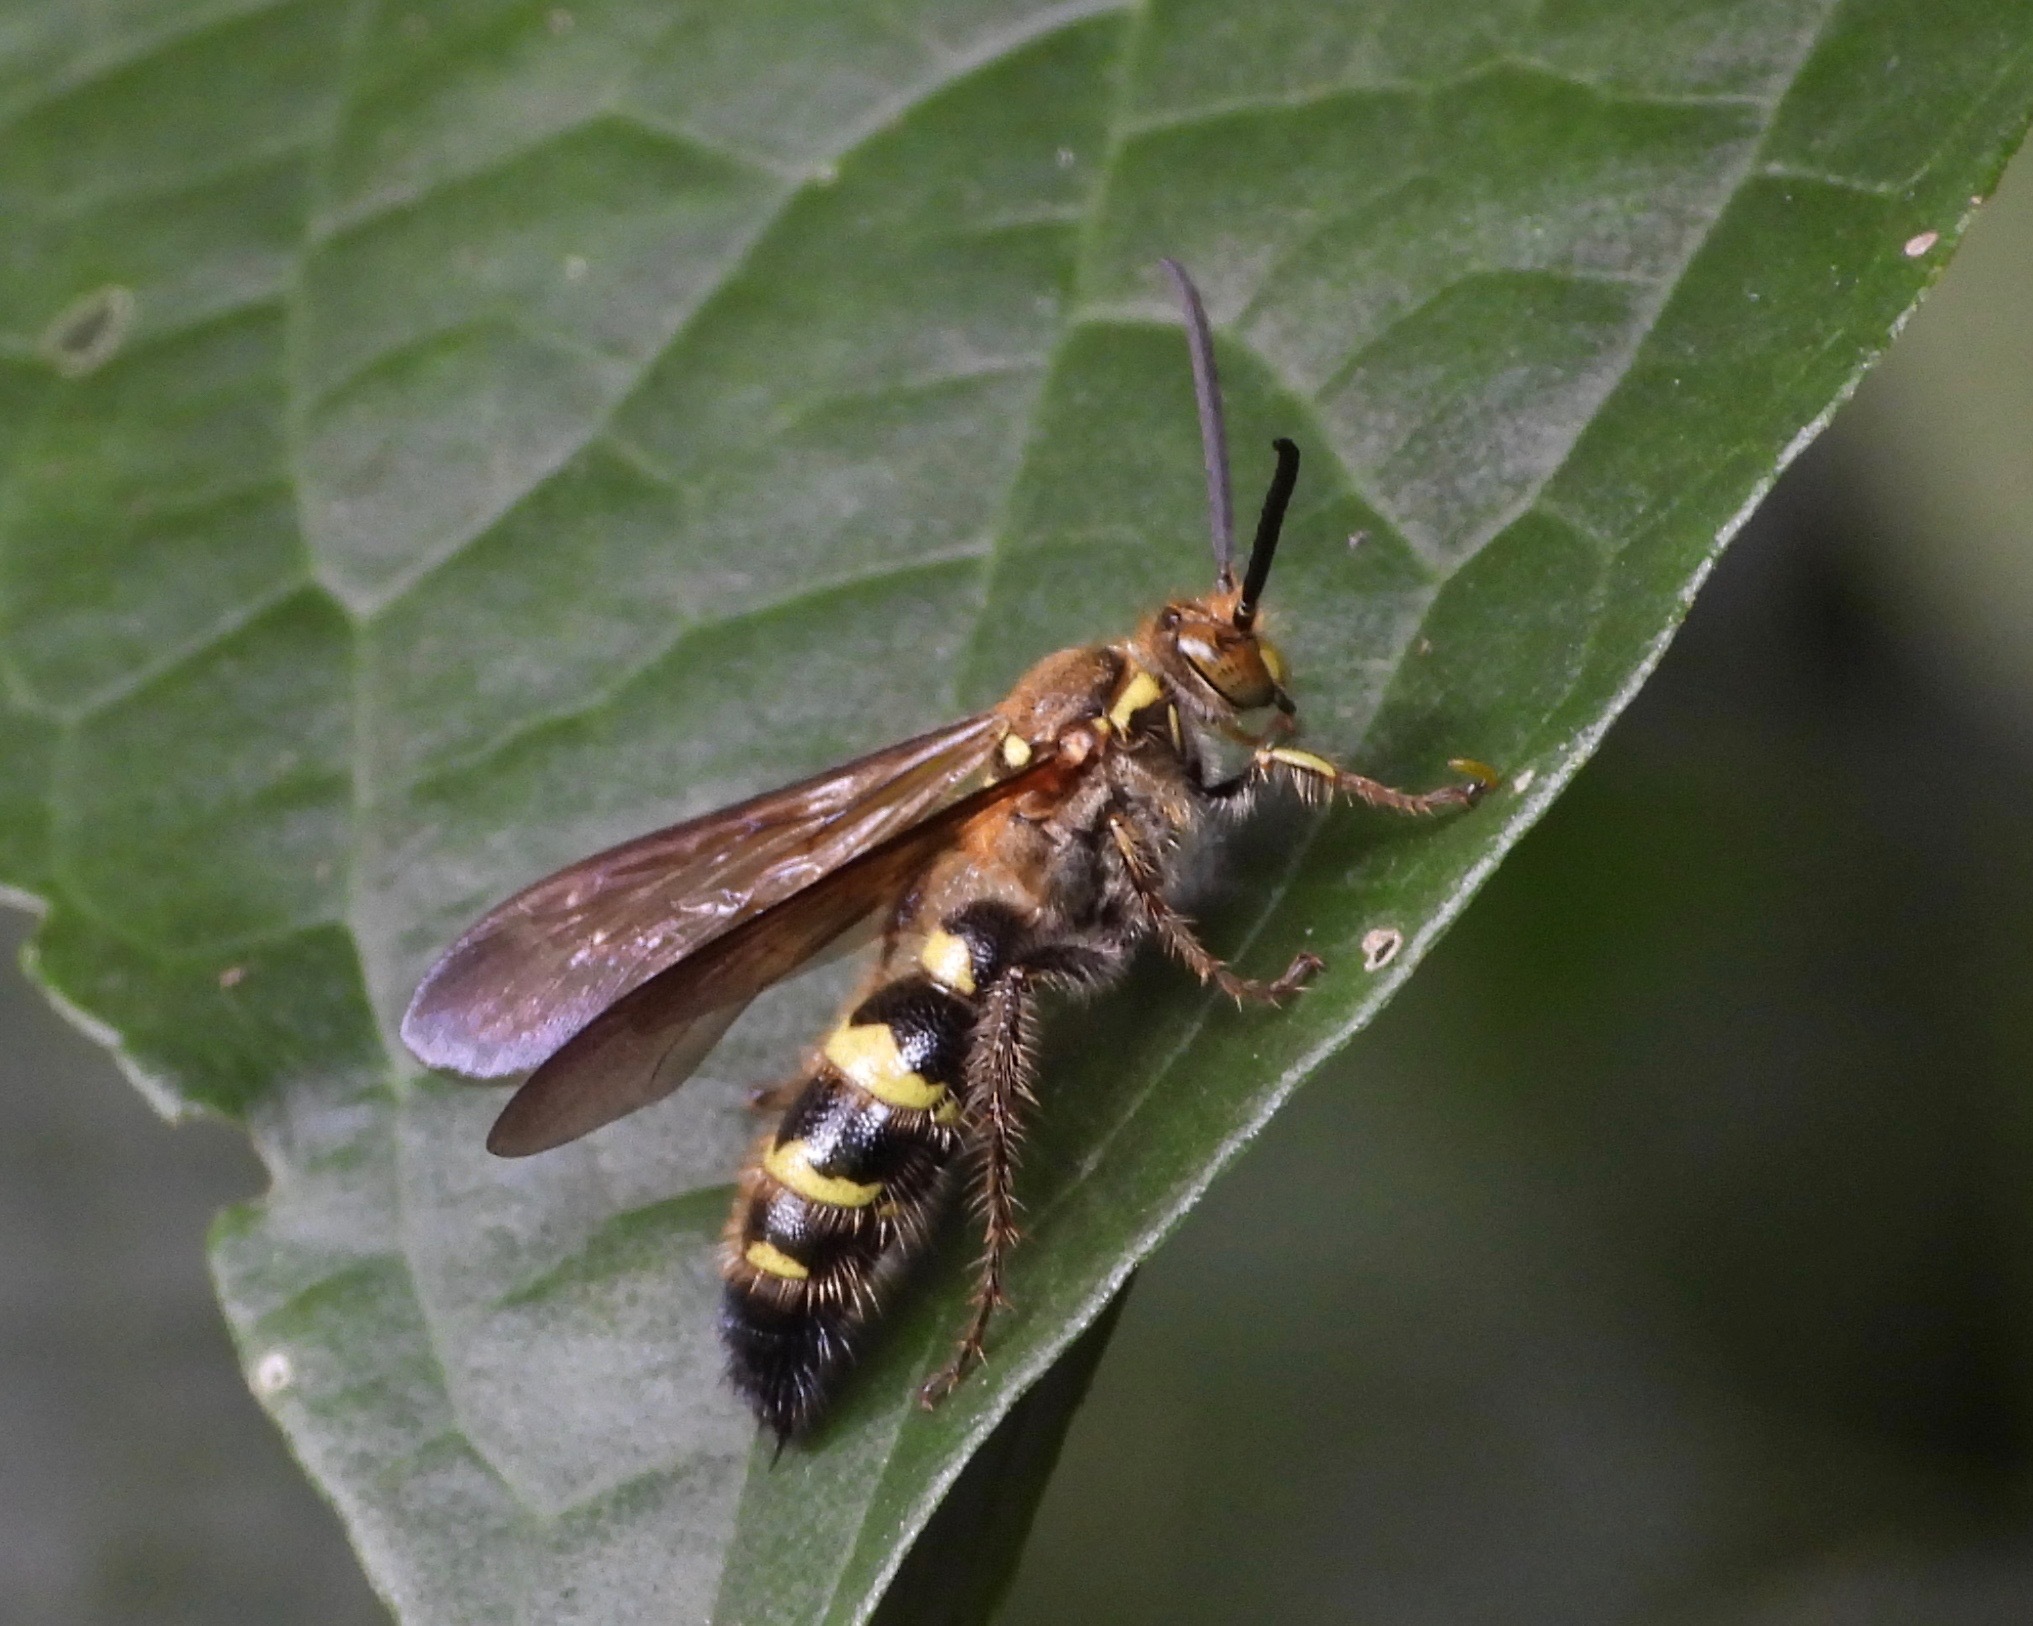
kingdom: Animalia
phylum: Arthropoda
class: Insecta
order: Hymenoptera
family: Scoliidae
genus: Xanthocampsomeris
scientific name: Xanthocampsomeris hesterae
